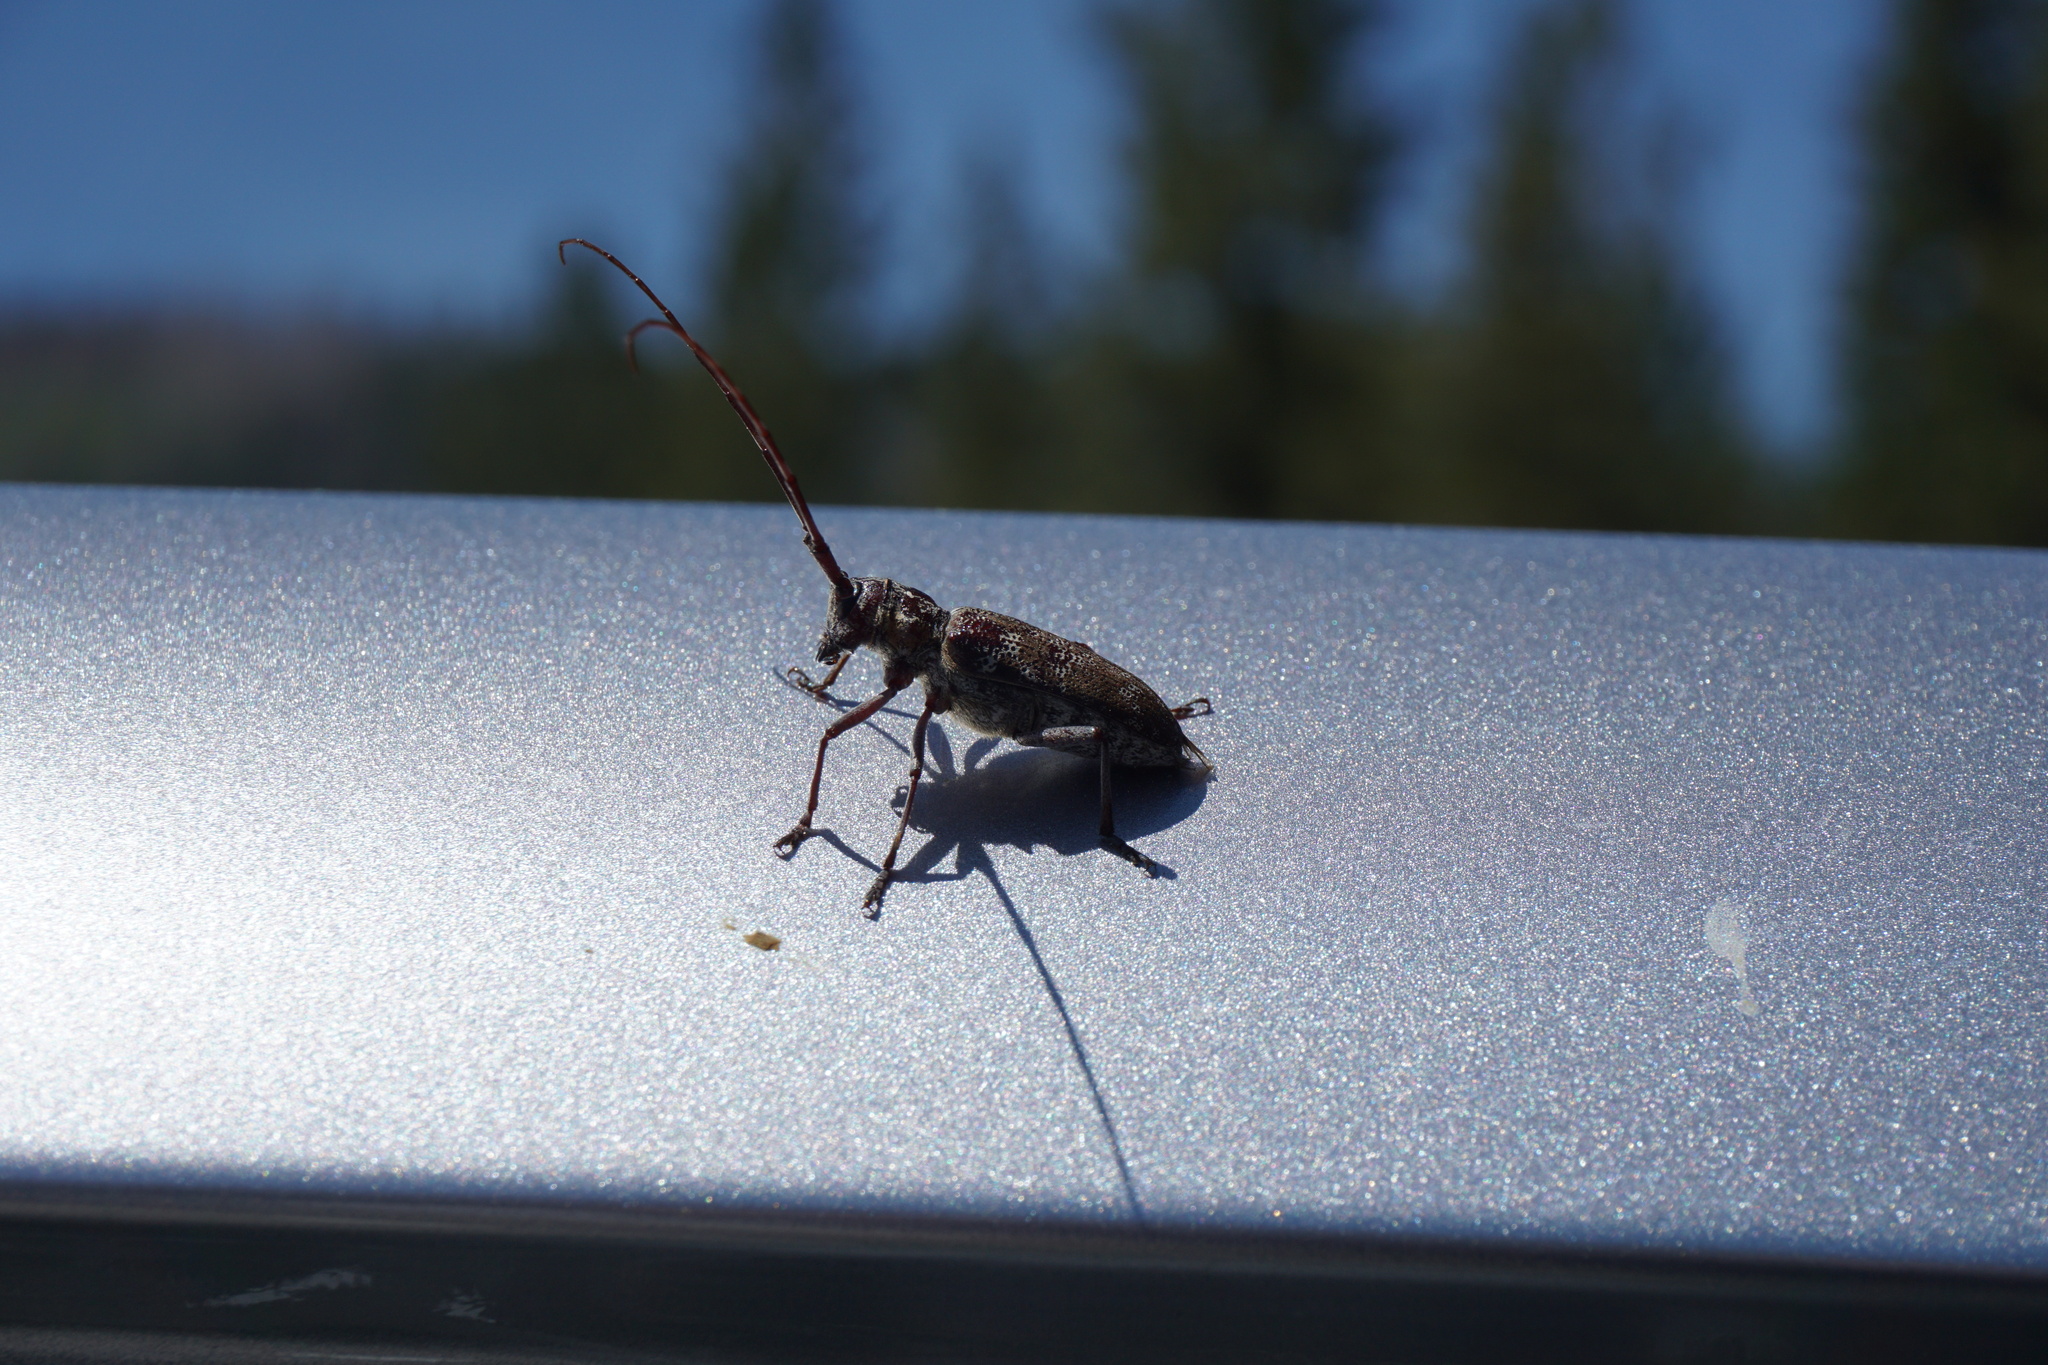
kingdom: Animalia
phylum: Arthropoda
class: Insecta
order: Coleoptera
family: Cerambycidae
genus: Monochamus
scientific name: Monochamus obtusus
